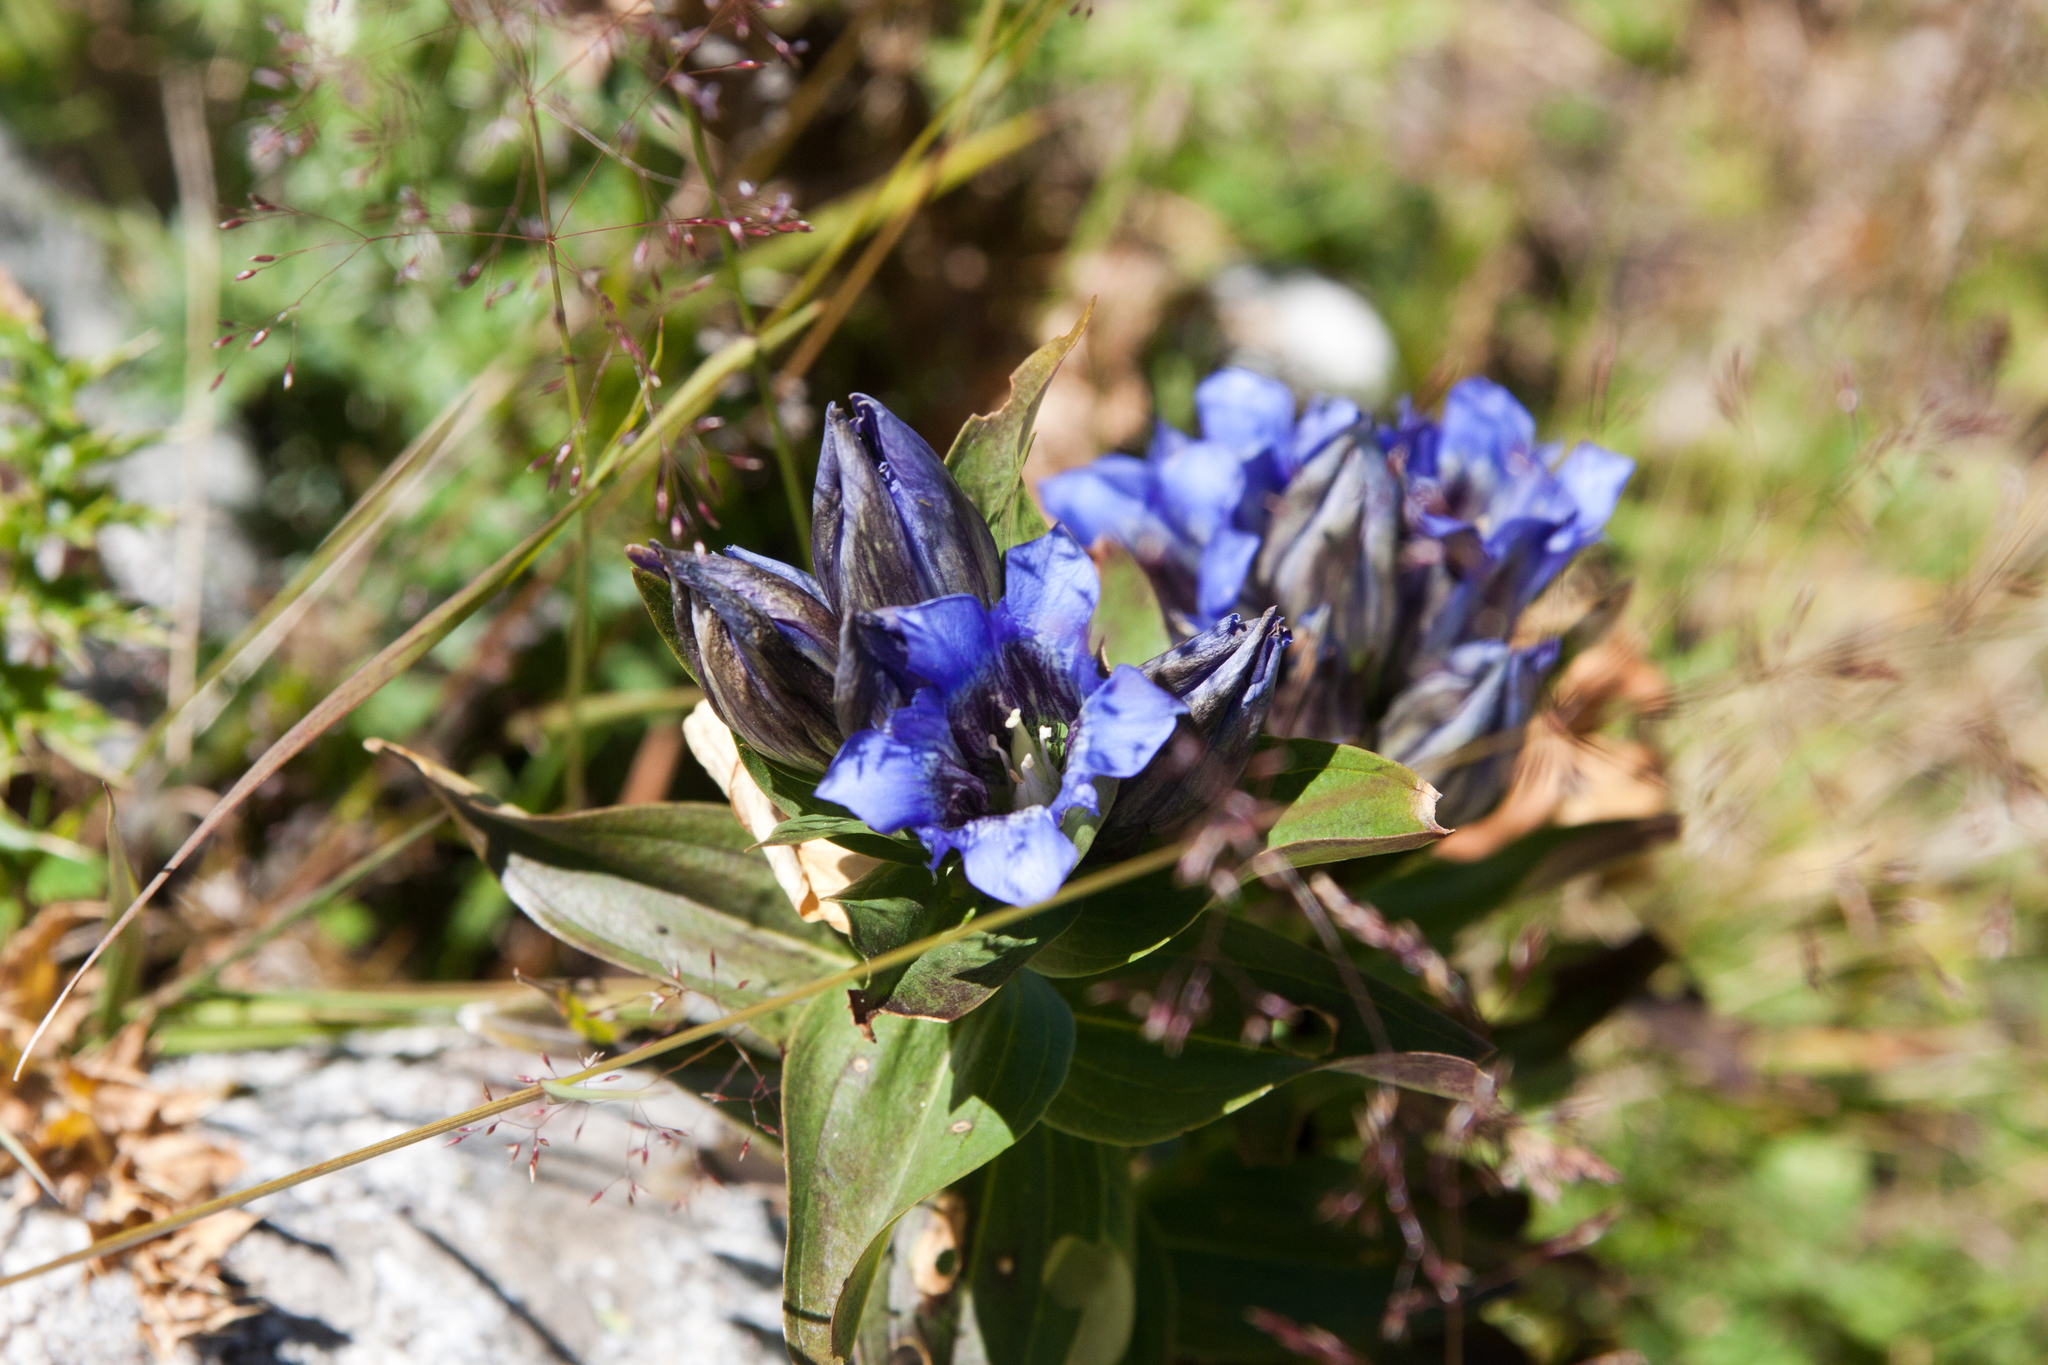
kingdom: Plantae
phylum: Tracheophyta
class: Magnoliopsida
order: Gentianales
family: Gentianaceae
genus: Gentiana
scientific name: Gentiana septemfida
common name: Crested gentian
